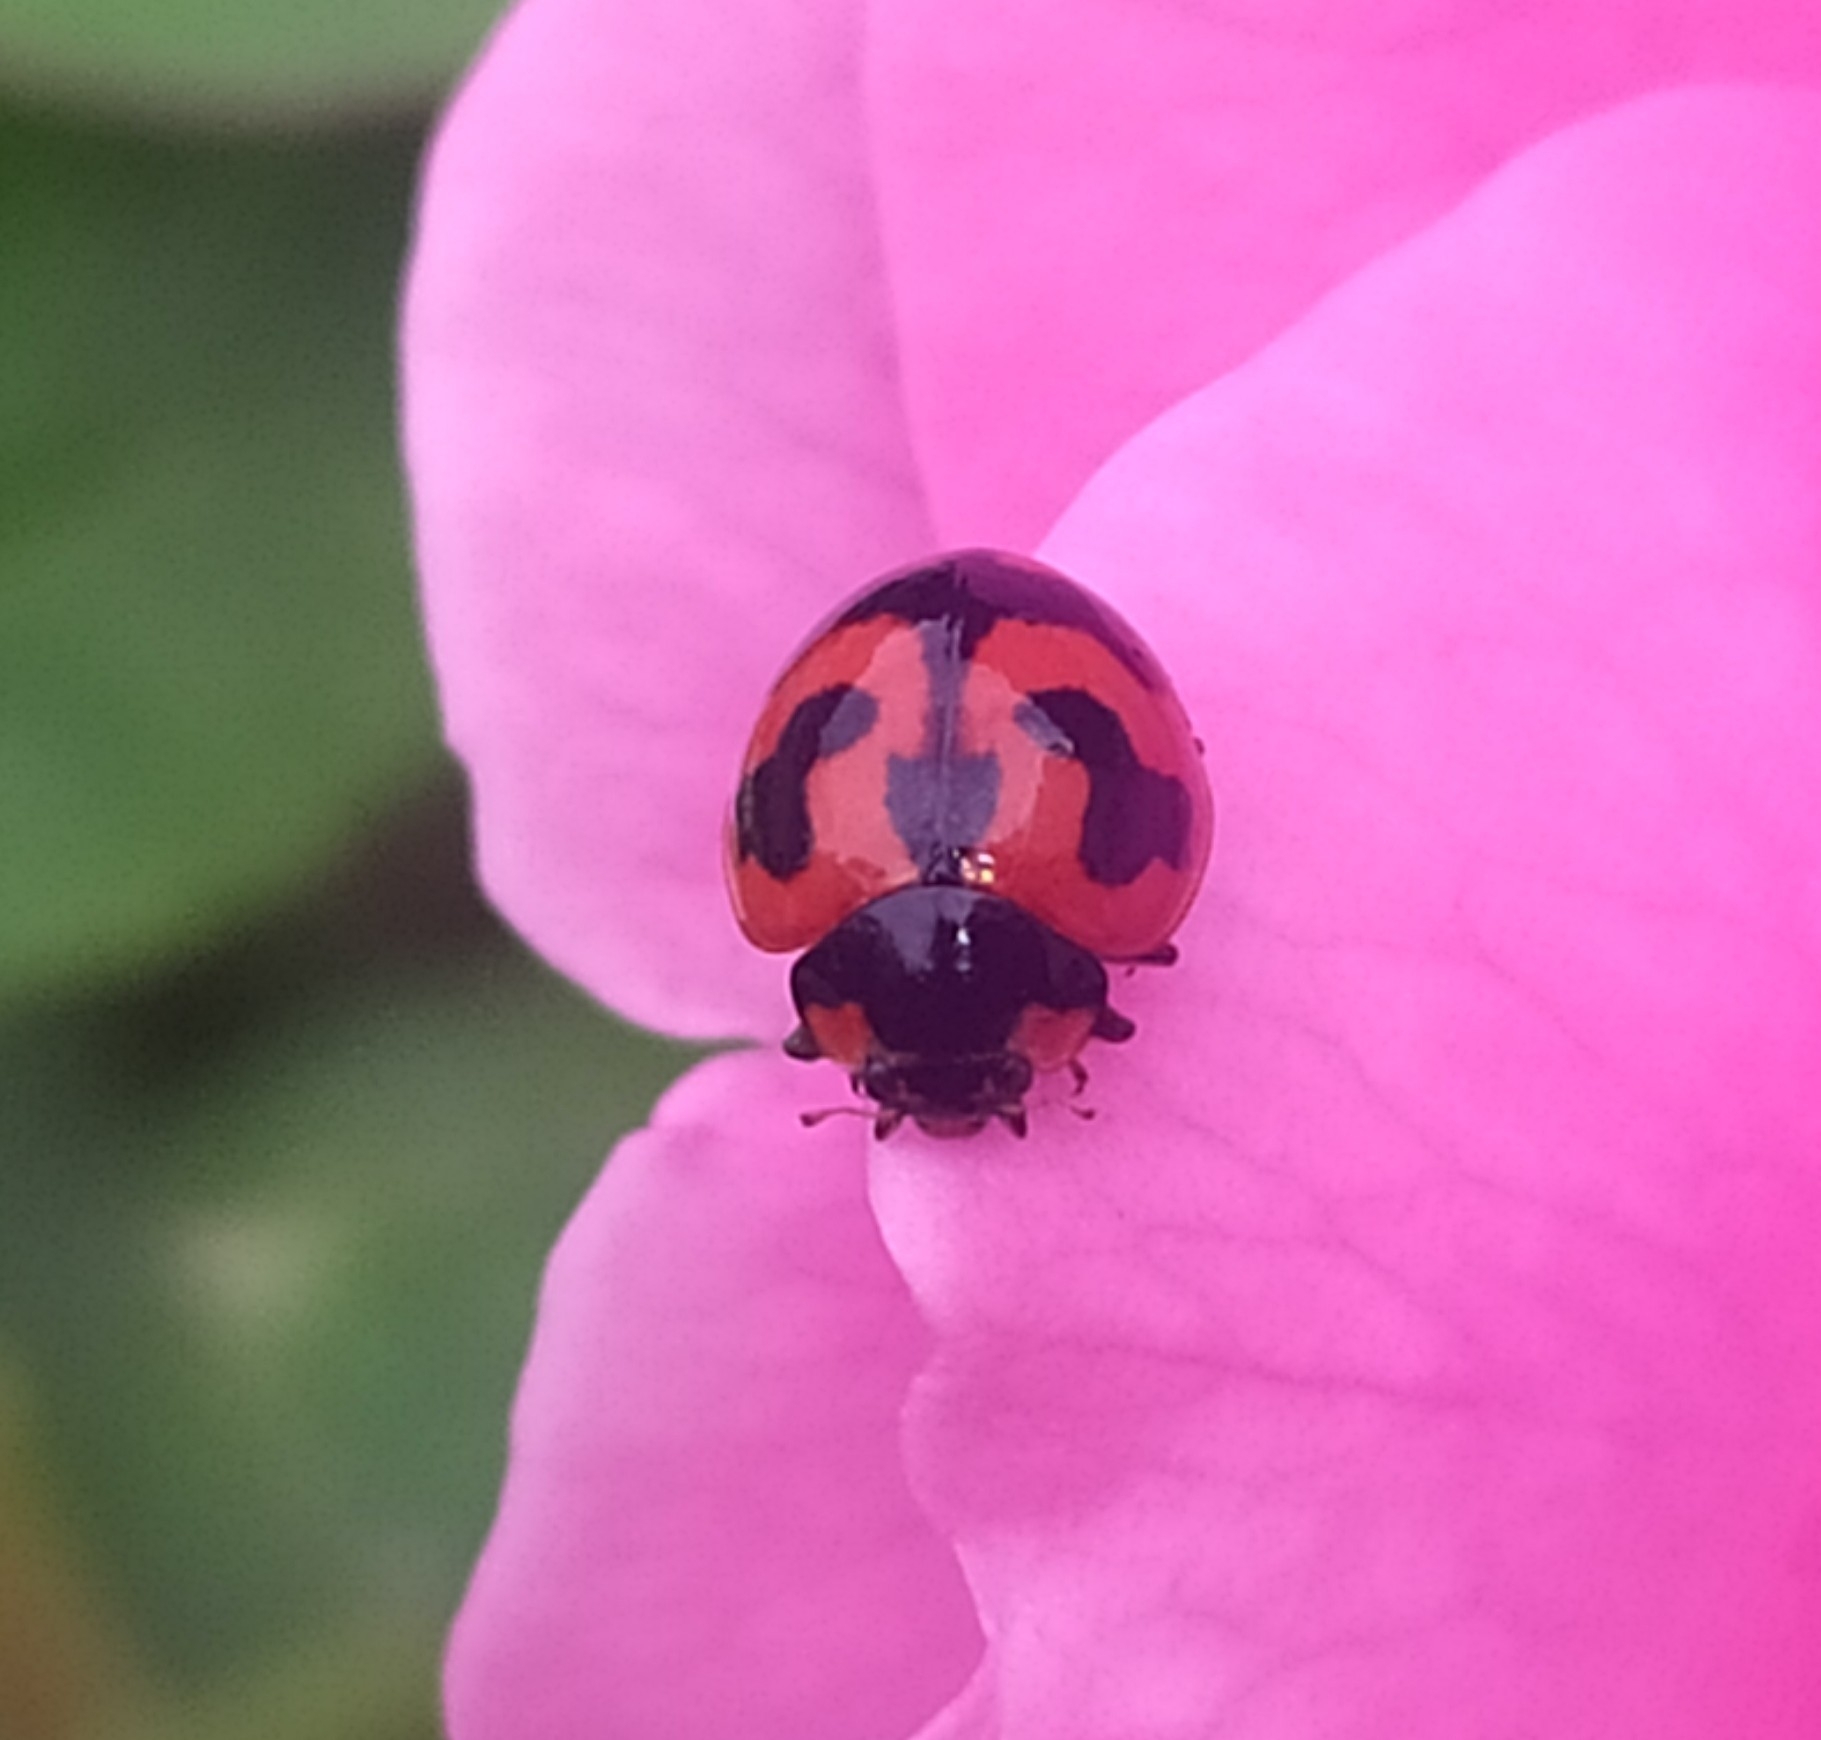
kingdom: Animalia
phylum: Arthropoda
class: Insecta
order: Coleoptera
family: Coccinellidae
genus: Coccinella
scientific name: Coccinella transversalis
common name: Transverse lady beetle
